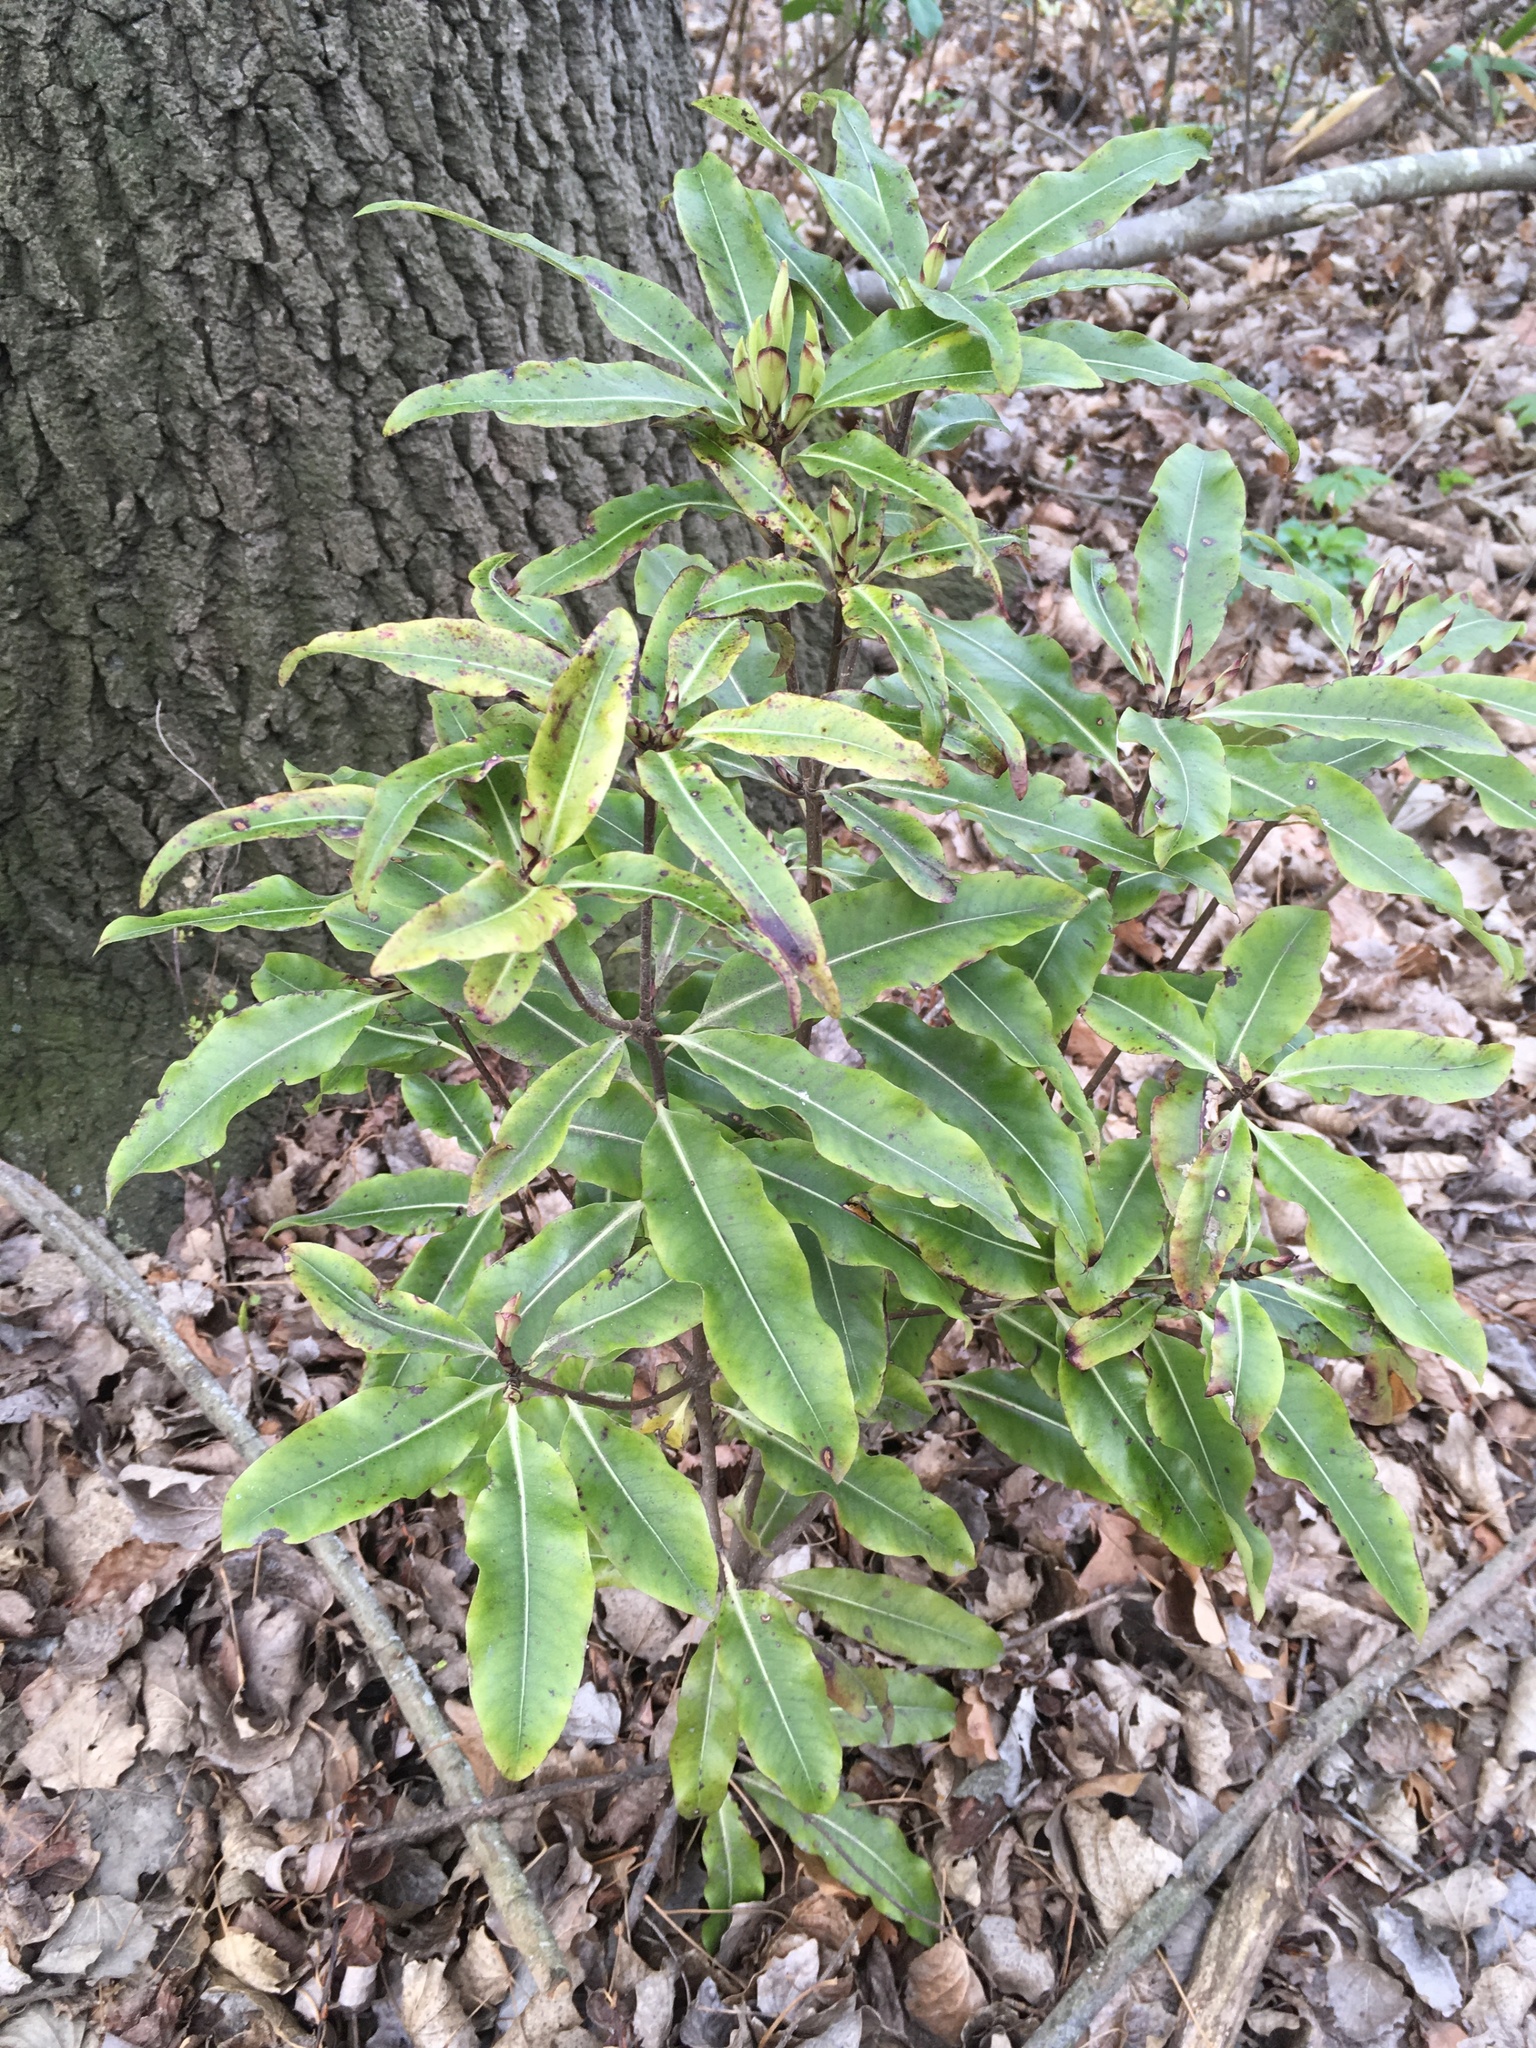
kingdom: Plantae
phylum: Tracheophyta
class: Magnoliopsida
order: Apiales
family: Pittosporaceae
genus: Pittosporum
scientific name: Pittosporum eugenioides
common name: Lemonwood
